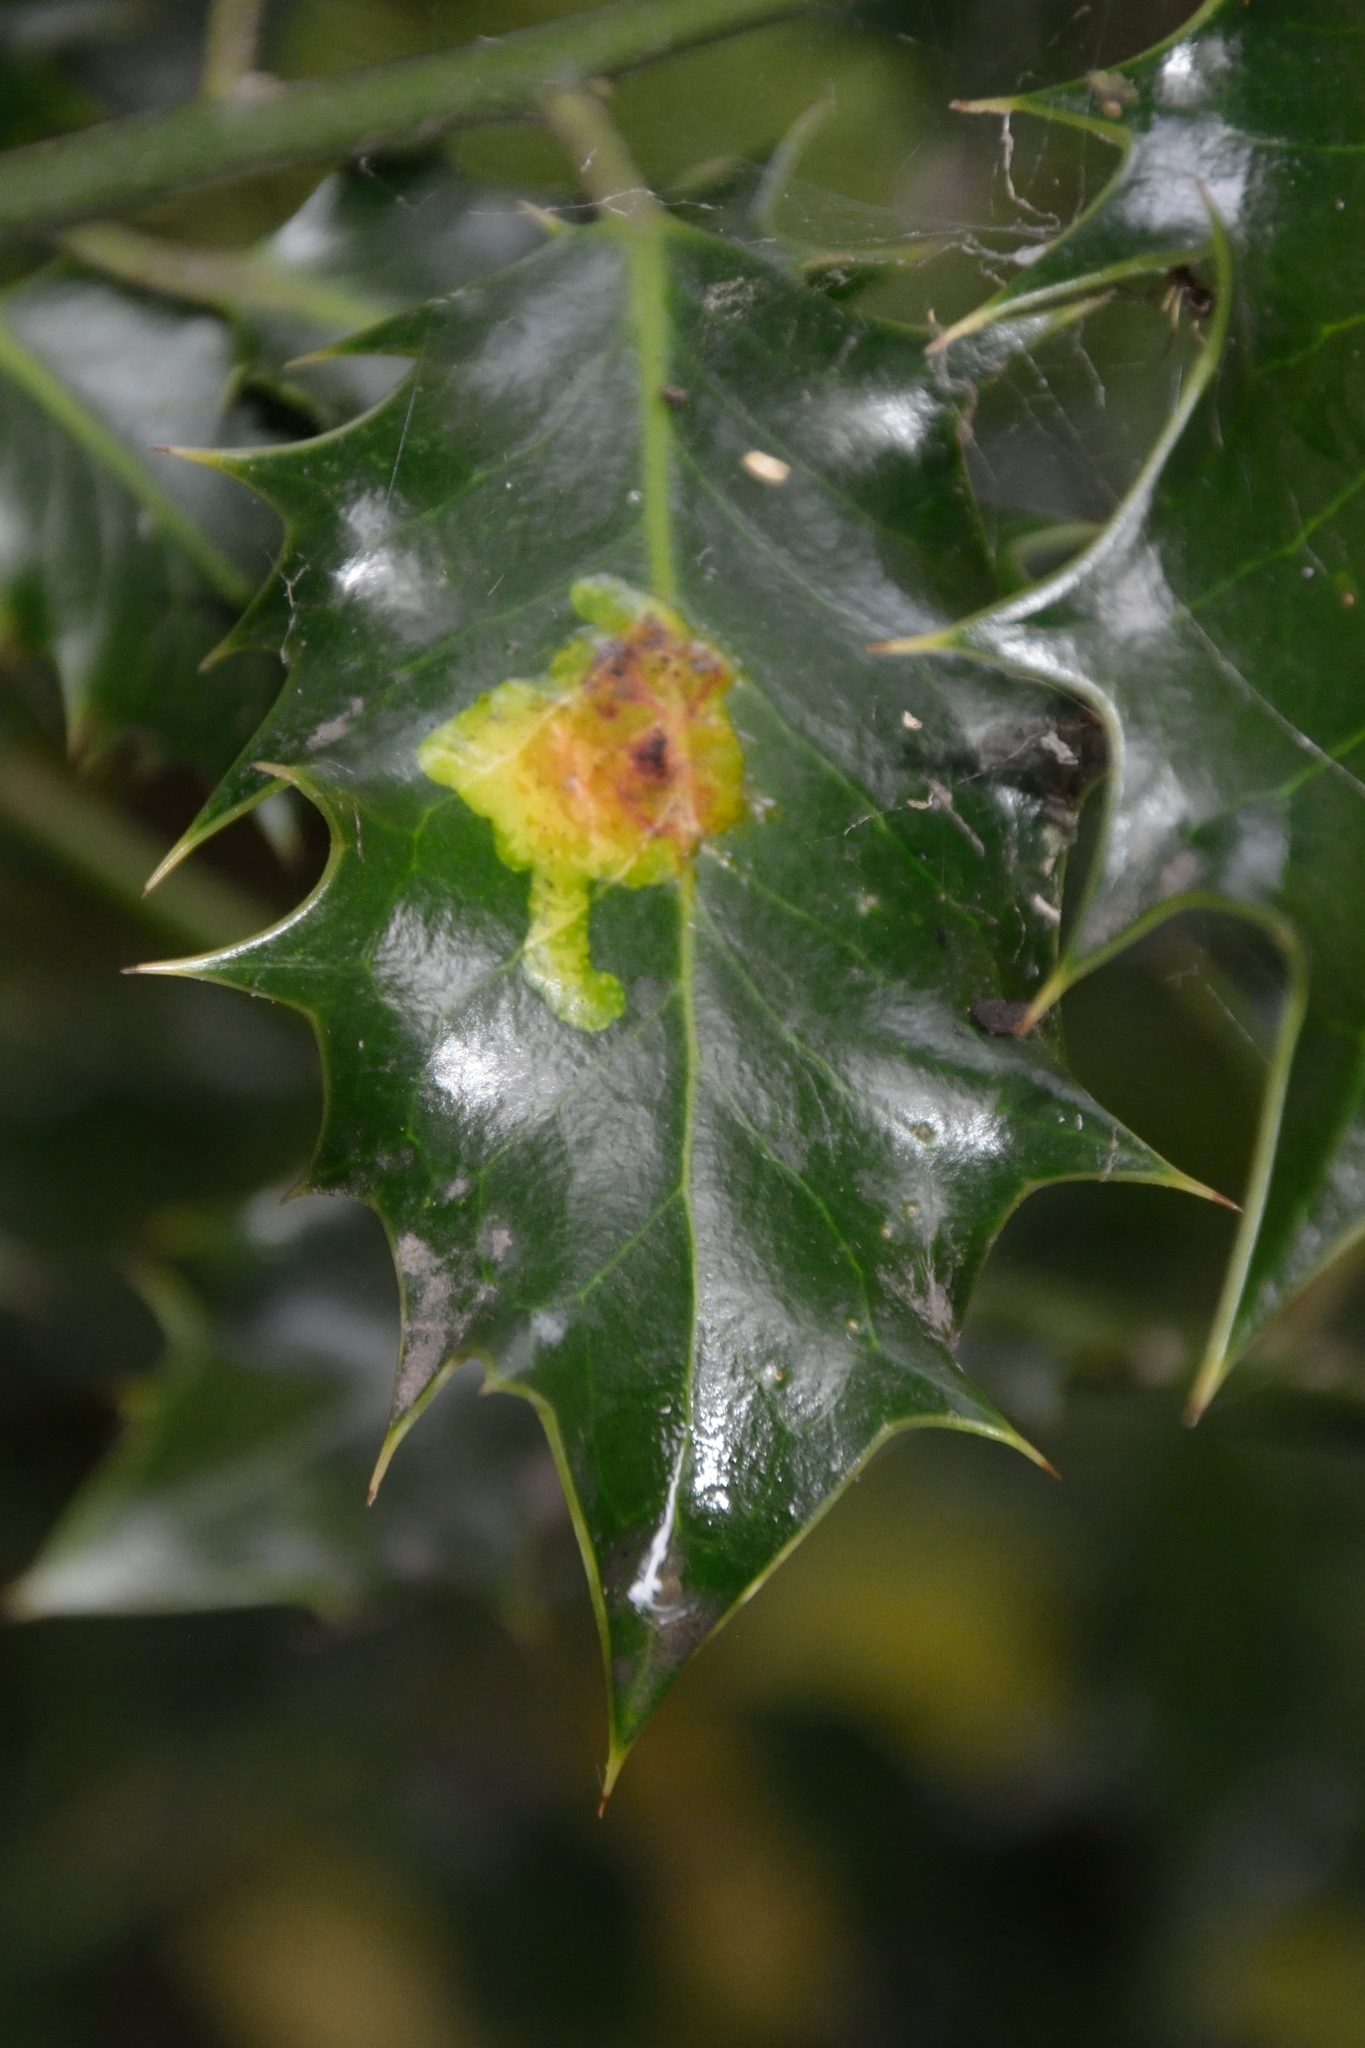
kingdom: Animalia
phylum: Arthropoda
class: Insecta
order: Diptera
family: Agromyzidae
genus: Phytomyza
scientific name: Phytomyza ilicis
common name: Holly leafminer
